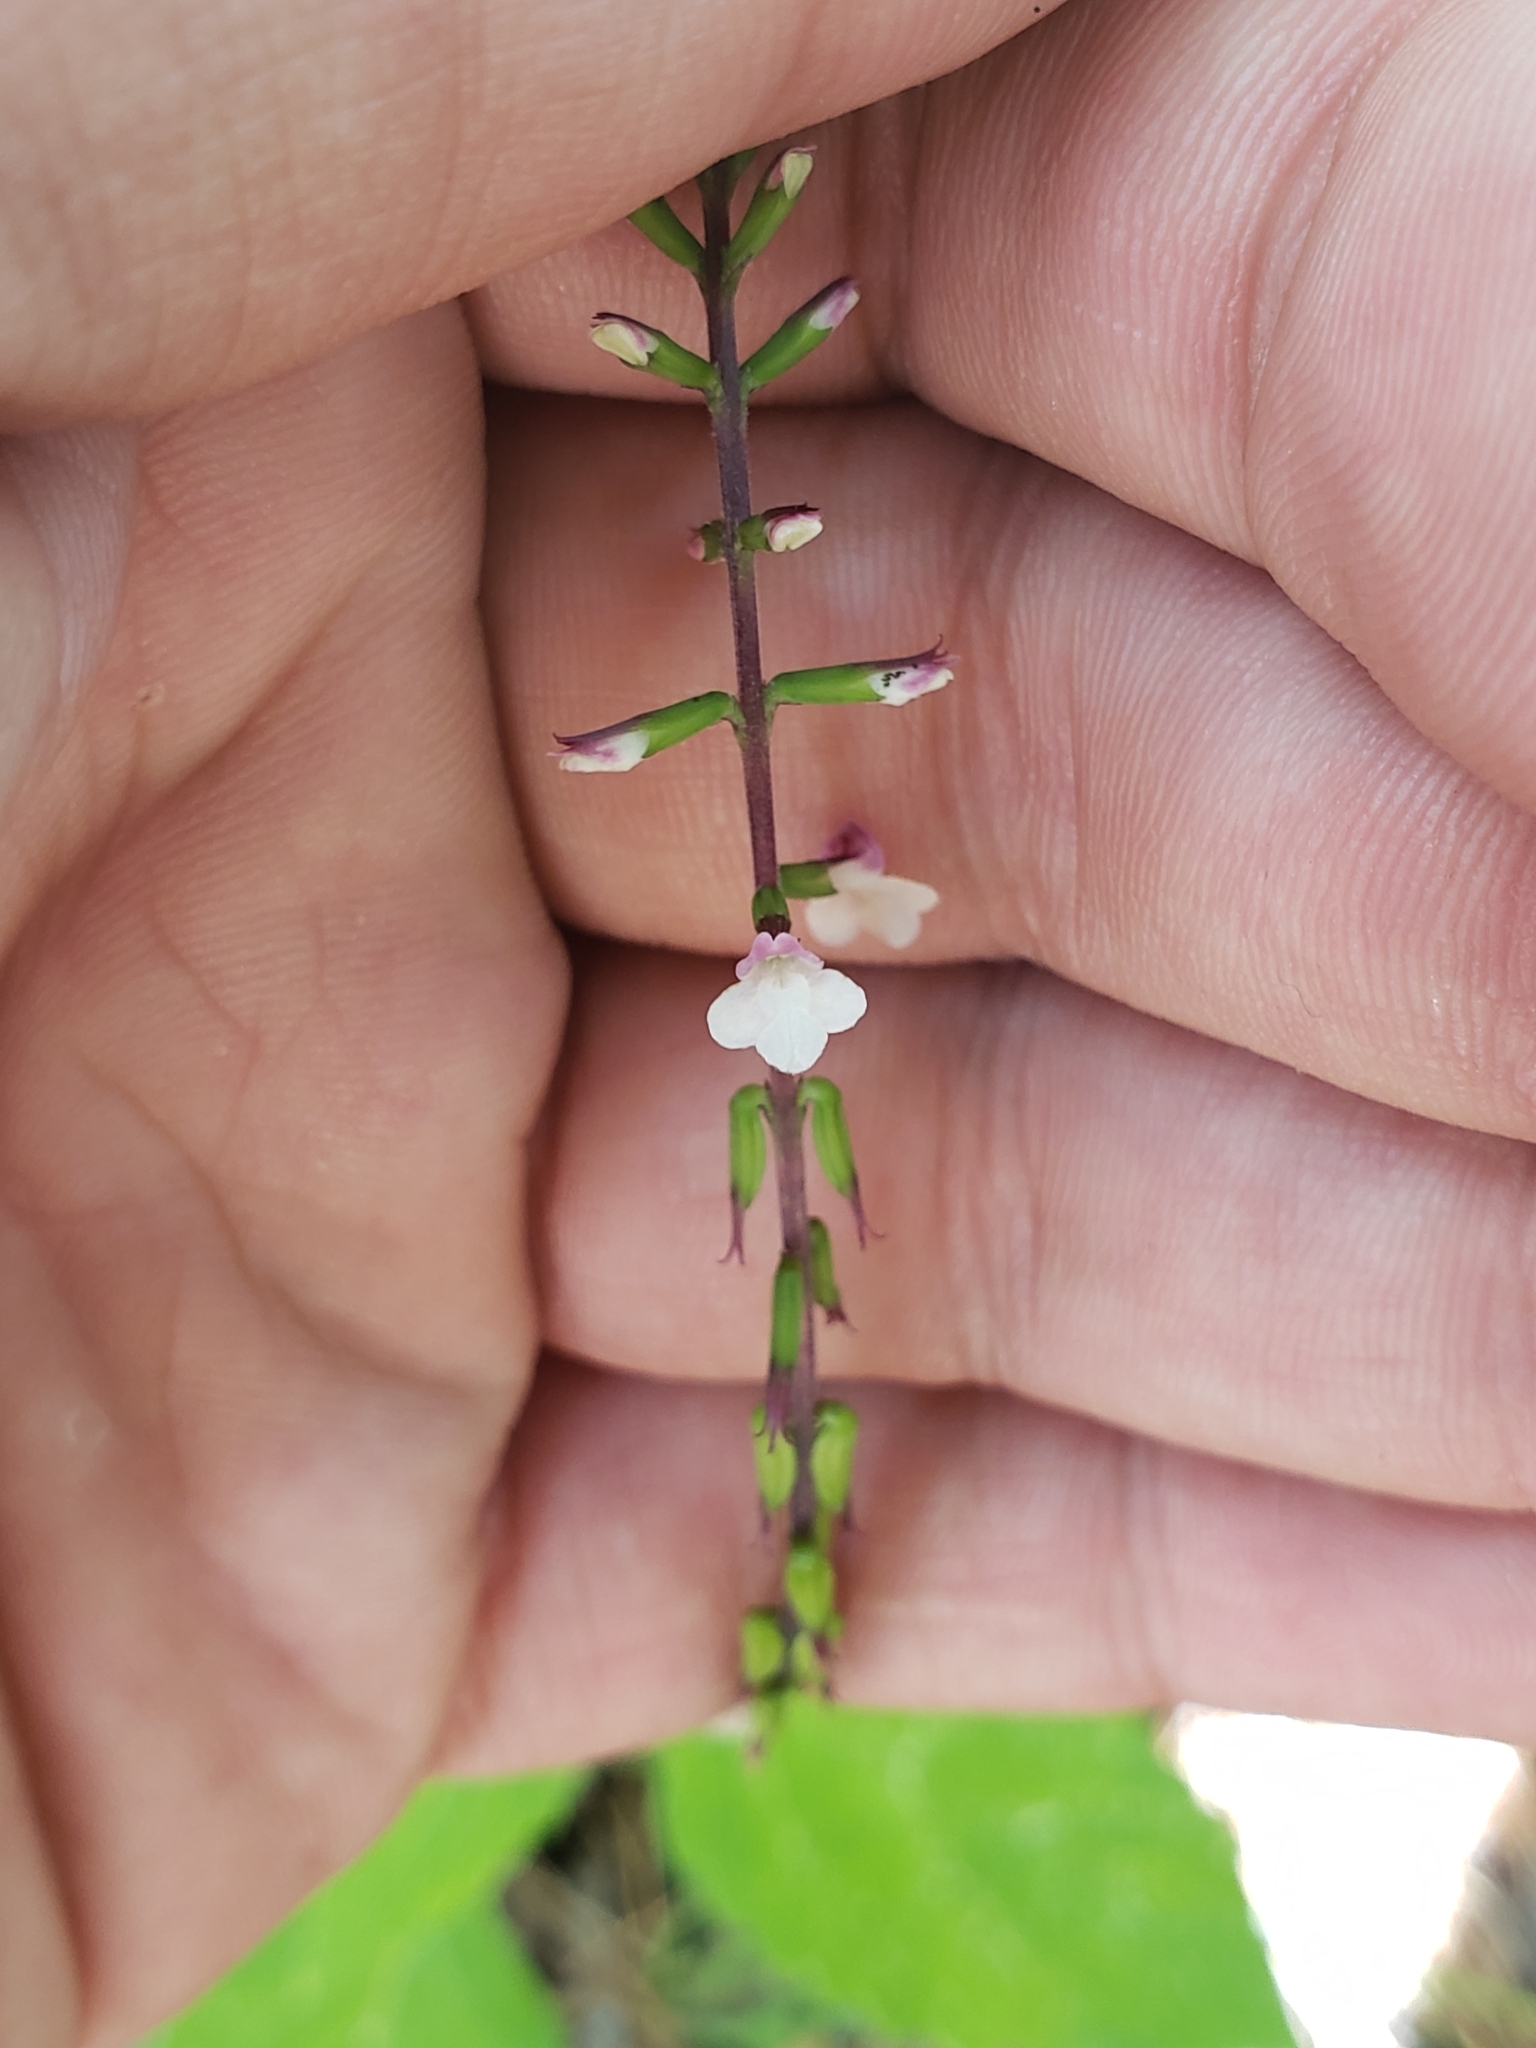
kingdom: Plantae
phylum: Tracheophyta
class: Magnoliopsida
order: Lamiales
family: Phrymaceae
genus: Phryma
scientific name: Phryma leptostachya
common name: American lopseed
